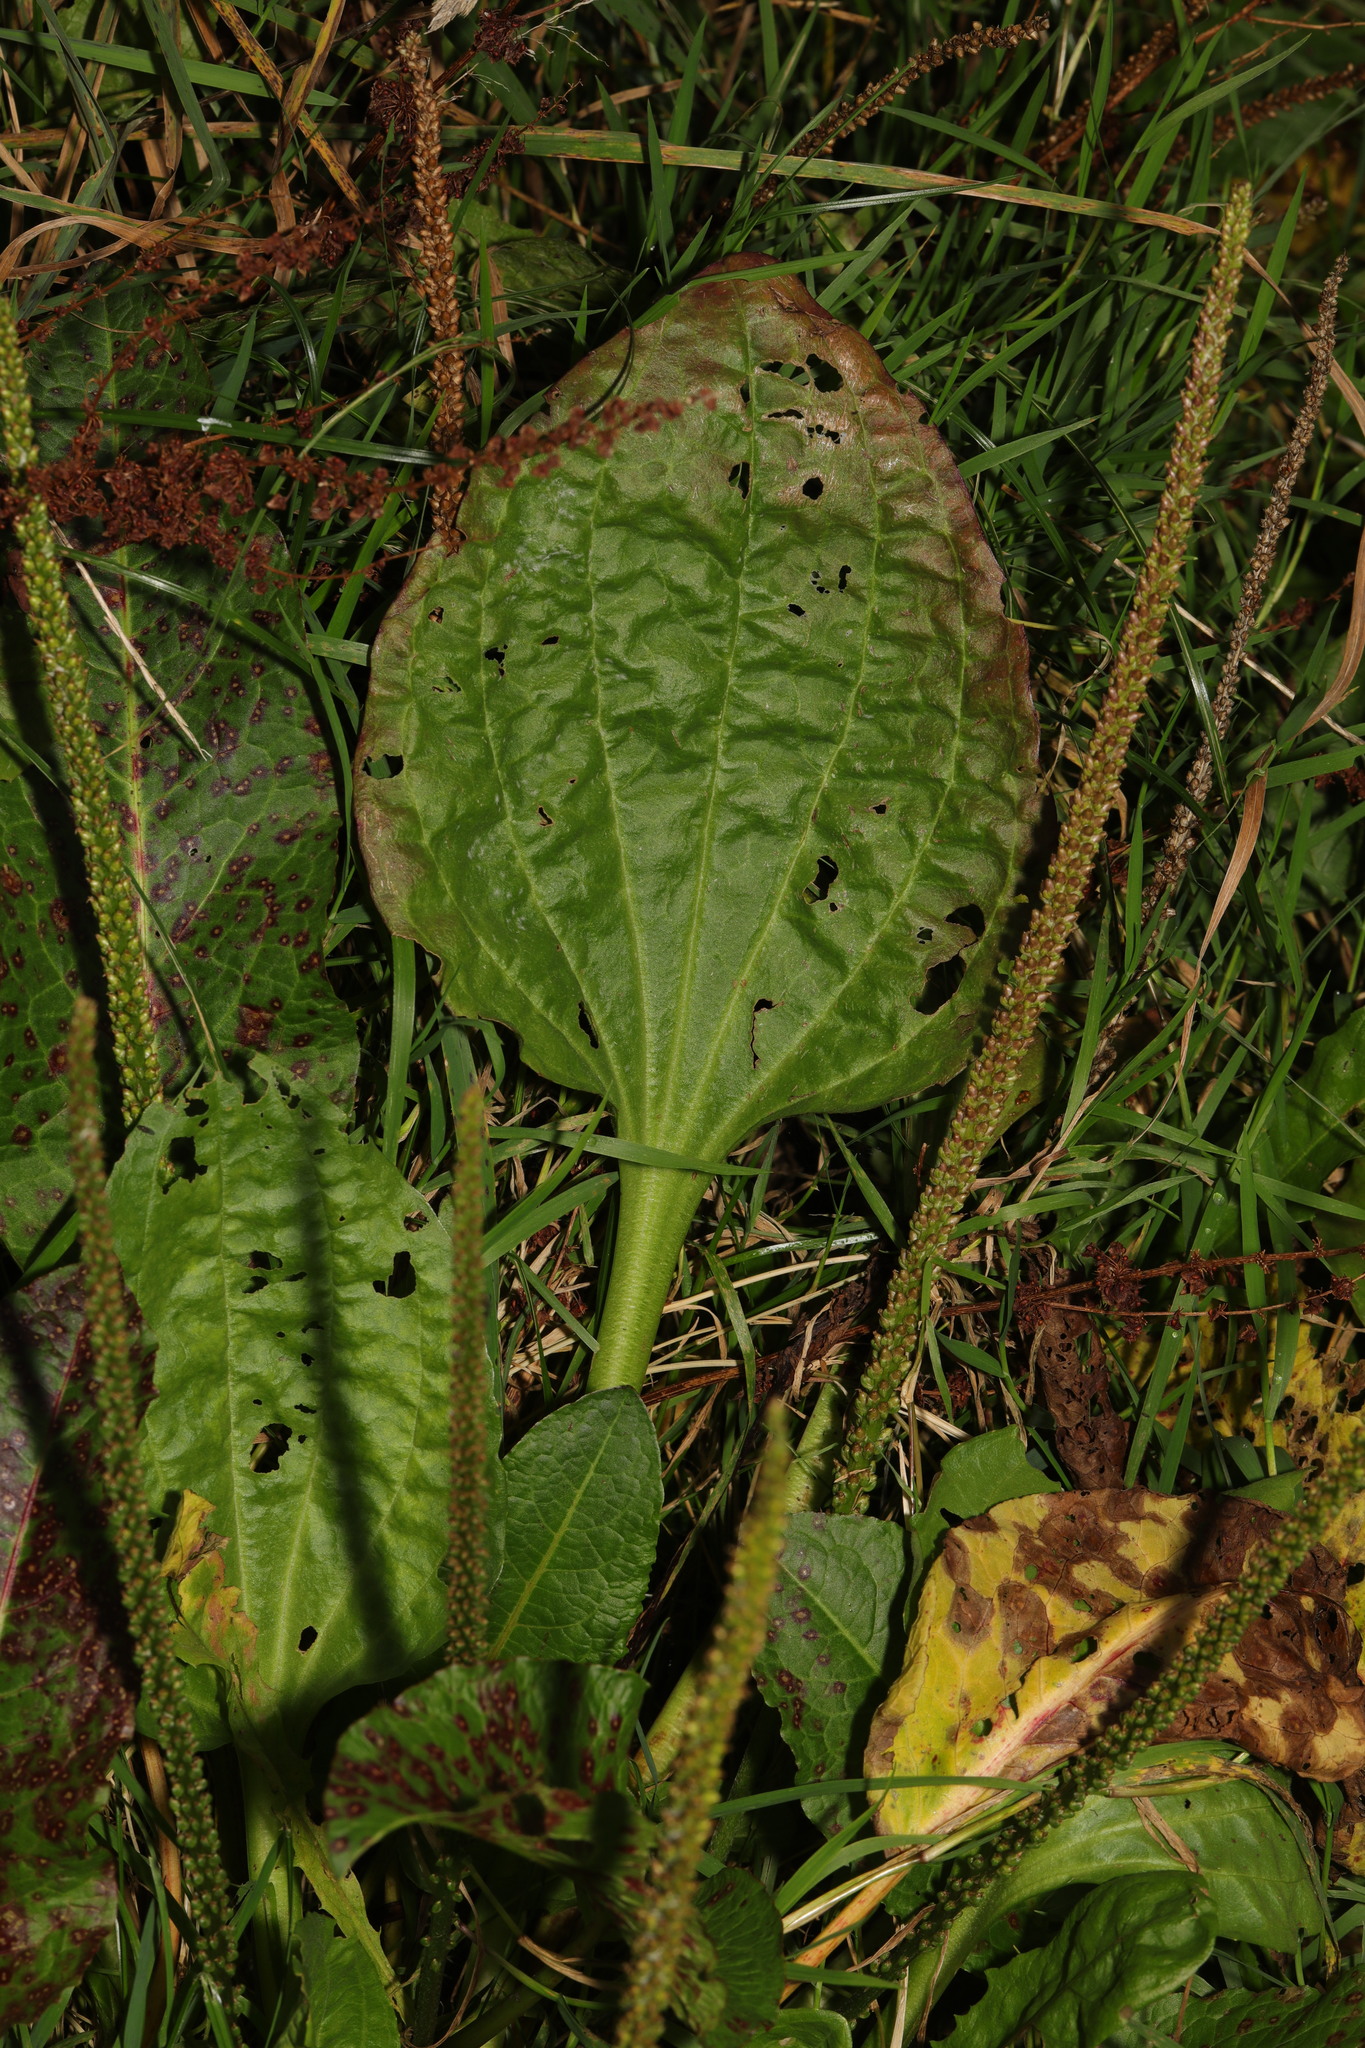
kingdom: Plantae
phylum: Tracheophyta
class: Magnoliopsida
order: Lamiales
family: Plantaginaceae
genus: Plantago
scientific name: Plantago major
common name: Common plantain
